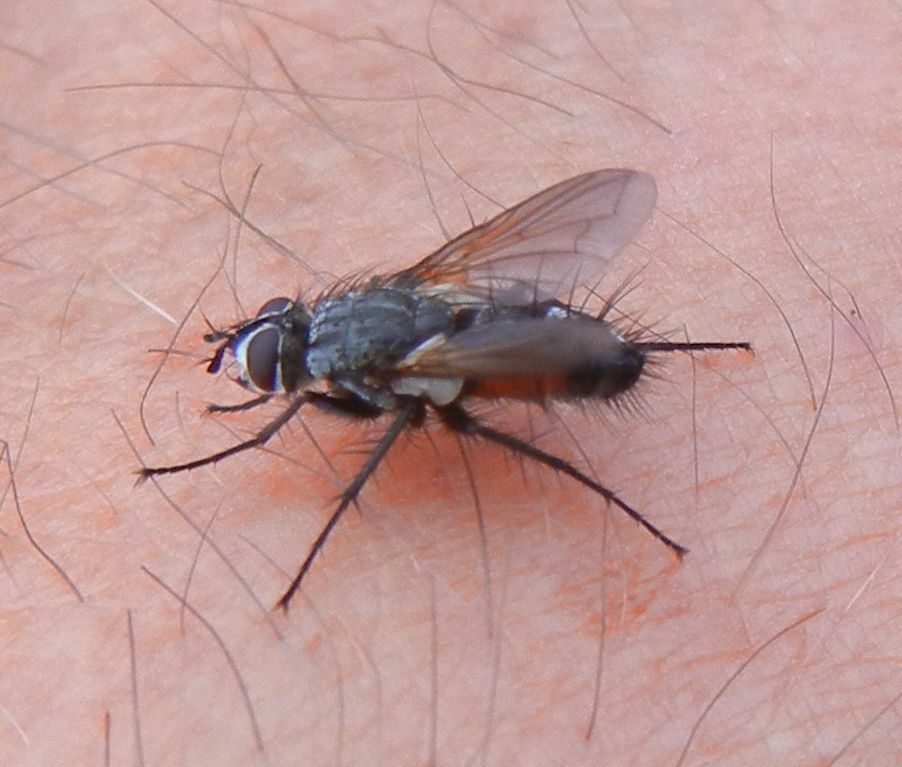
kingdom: Animalia
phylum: Arthropoda
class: Insecta
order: Diptera
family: Tachinidae
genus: Eriothrix
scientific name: Eriothrix rufomaculatus
